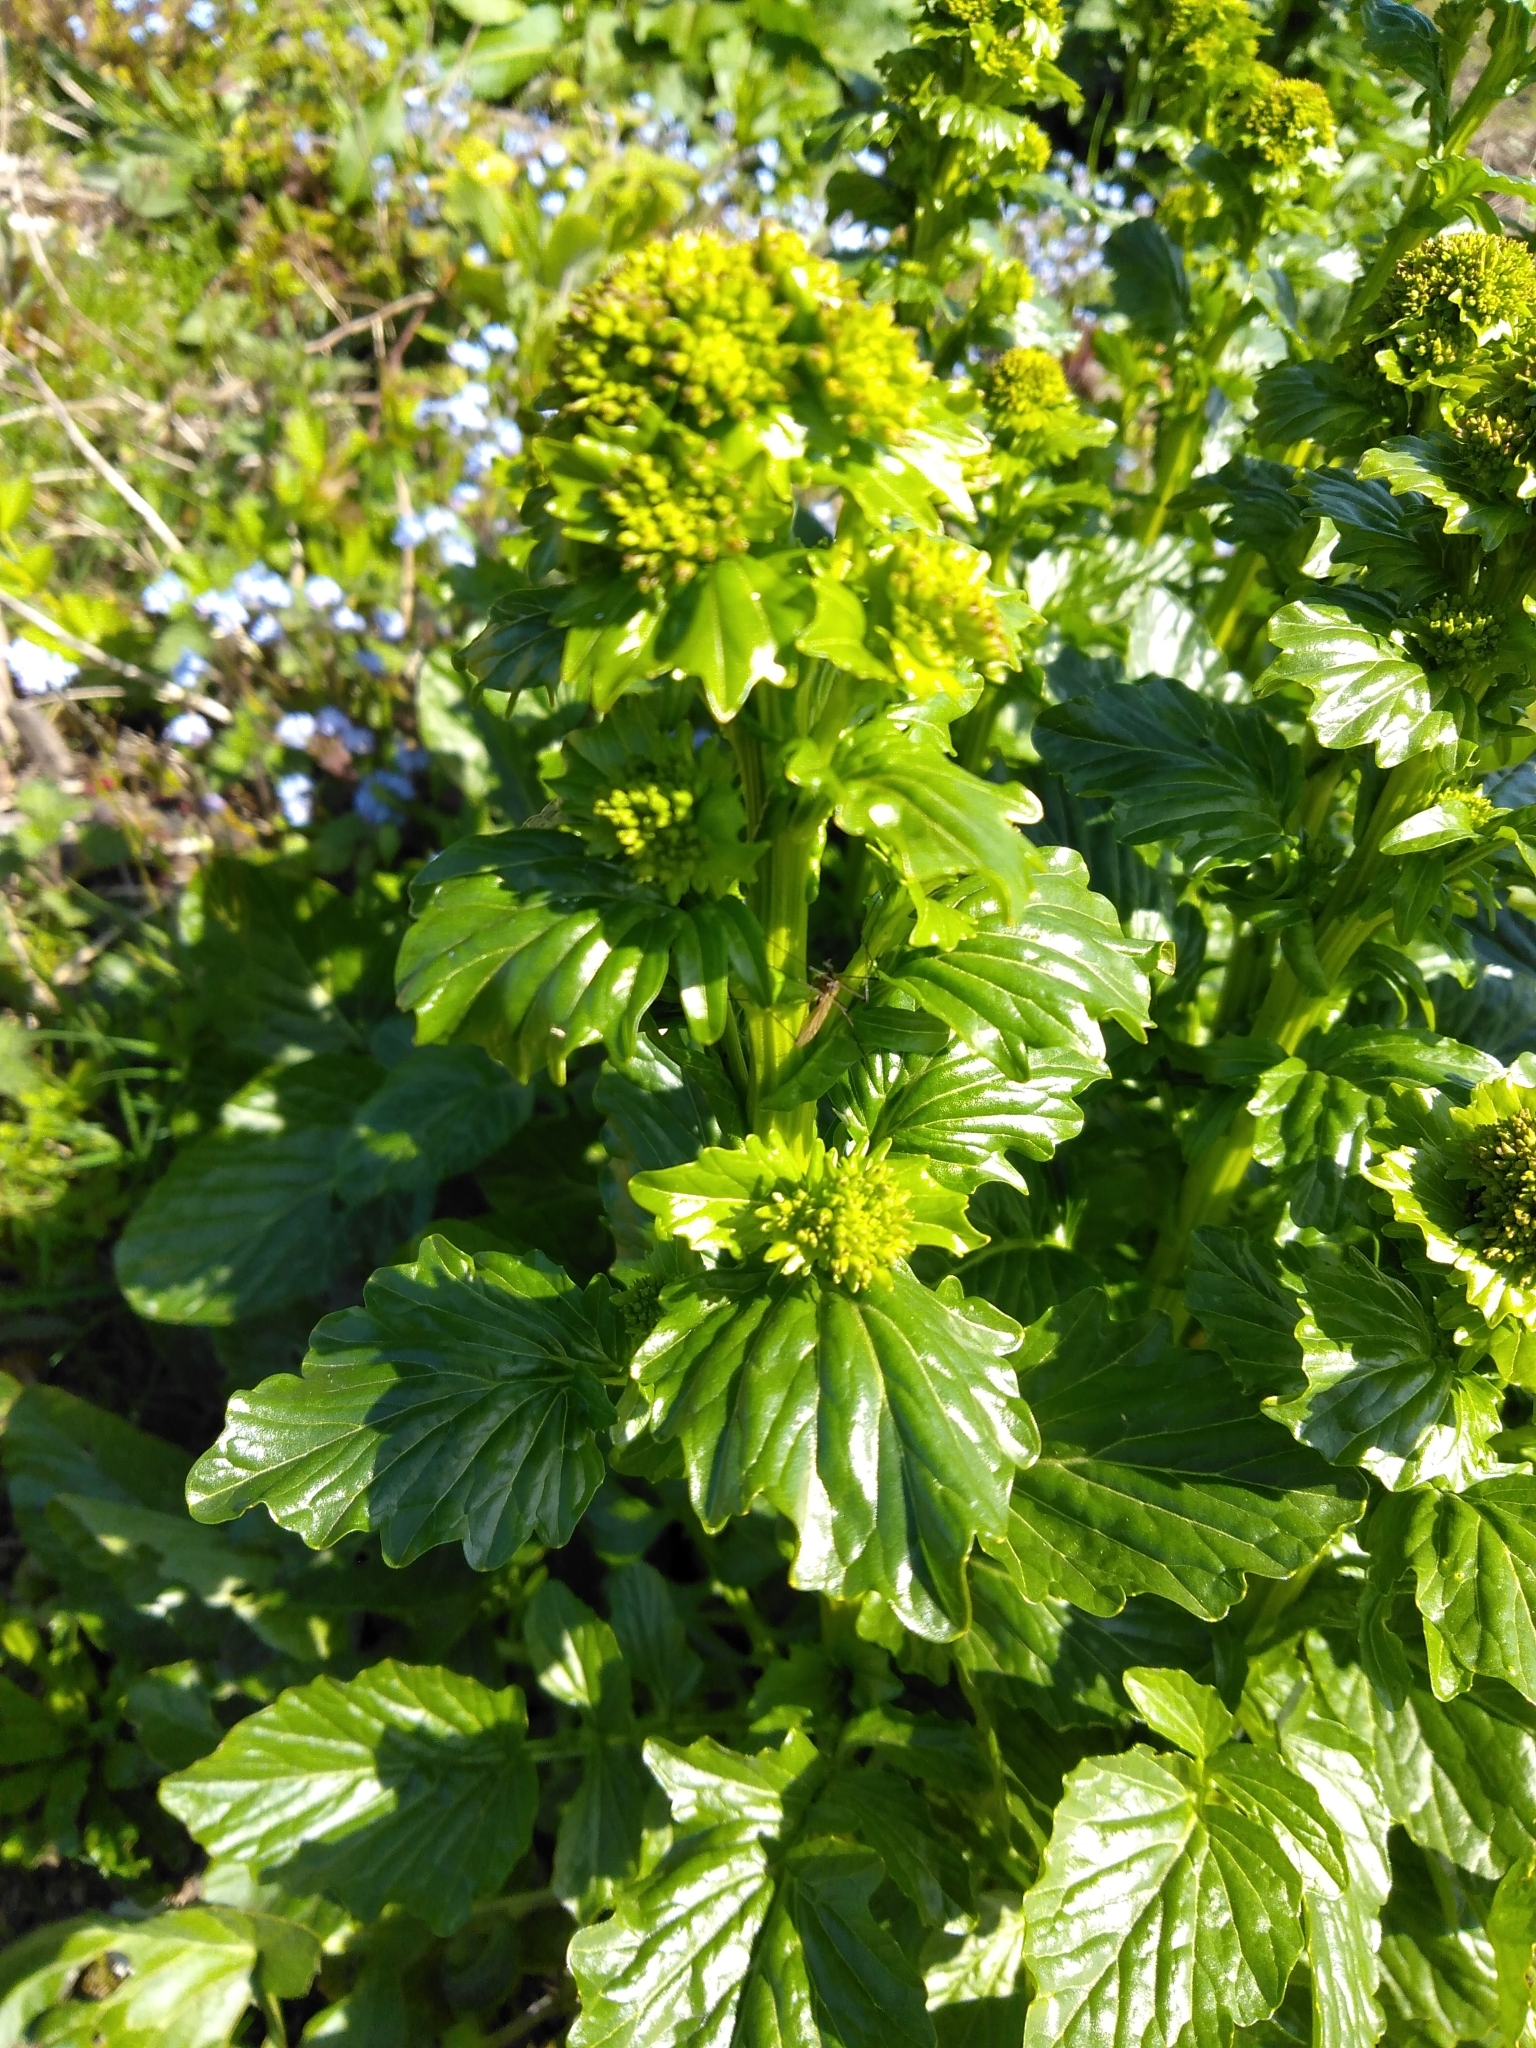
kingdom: Plantae
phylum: Tracheophyta
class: Magnoliopsida
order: Brassicales
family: Brassicaceae
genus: Barbarea
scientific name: Barbarea vulgaris
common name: Cressy-greens
